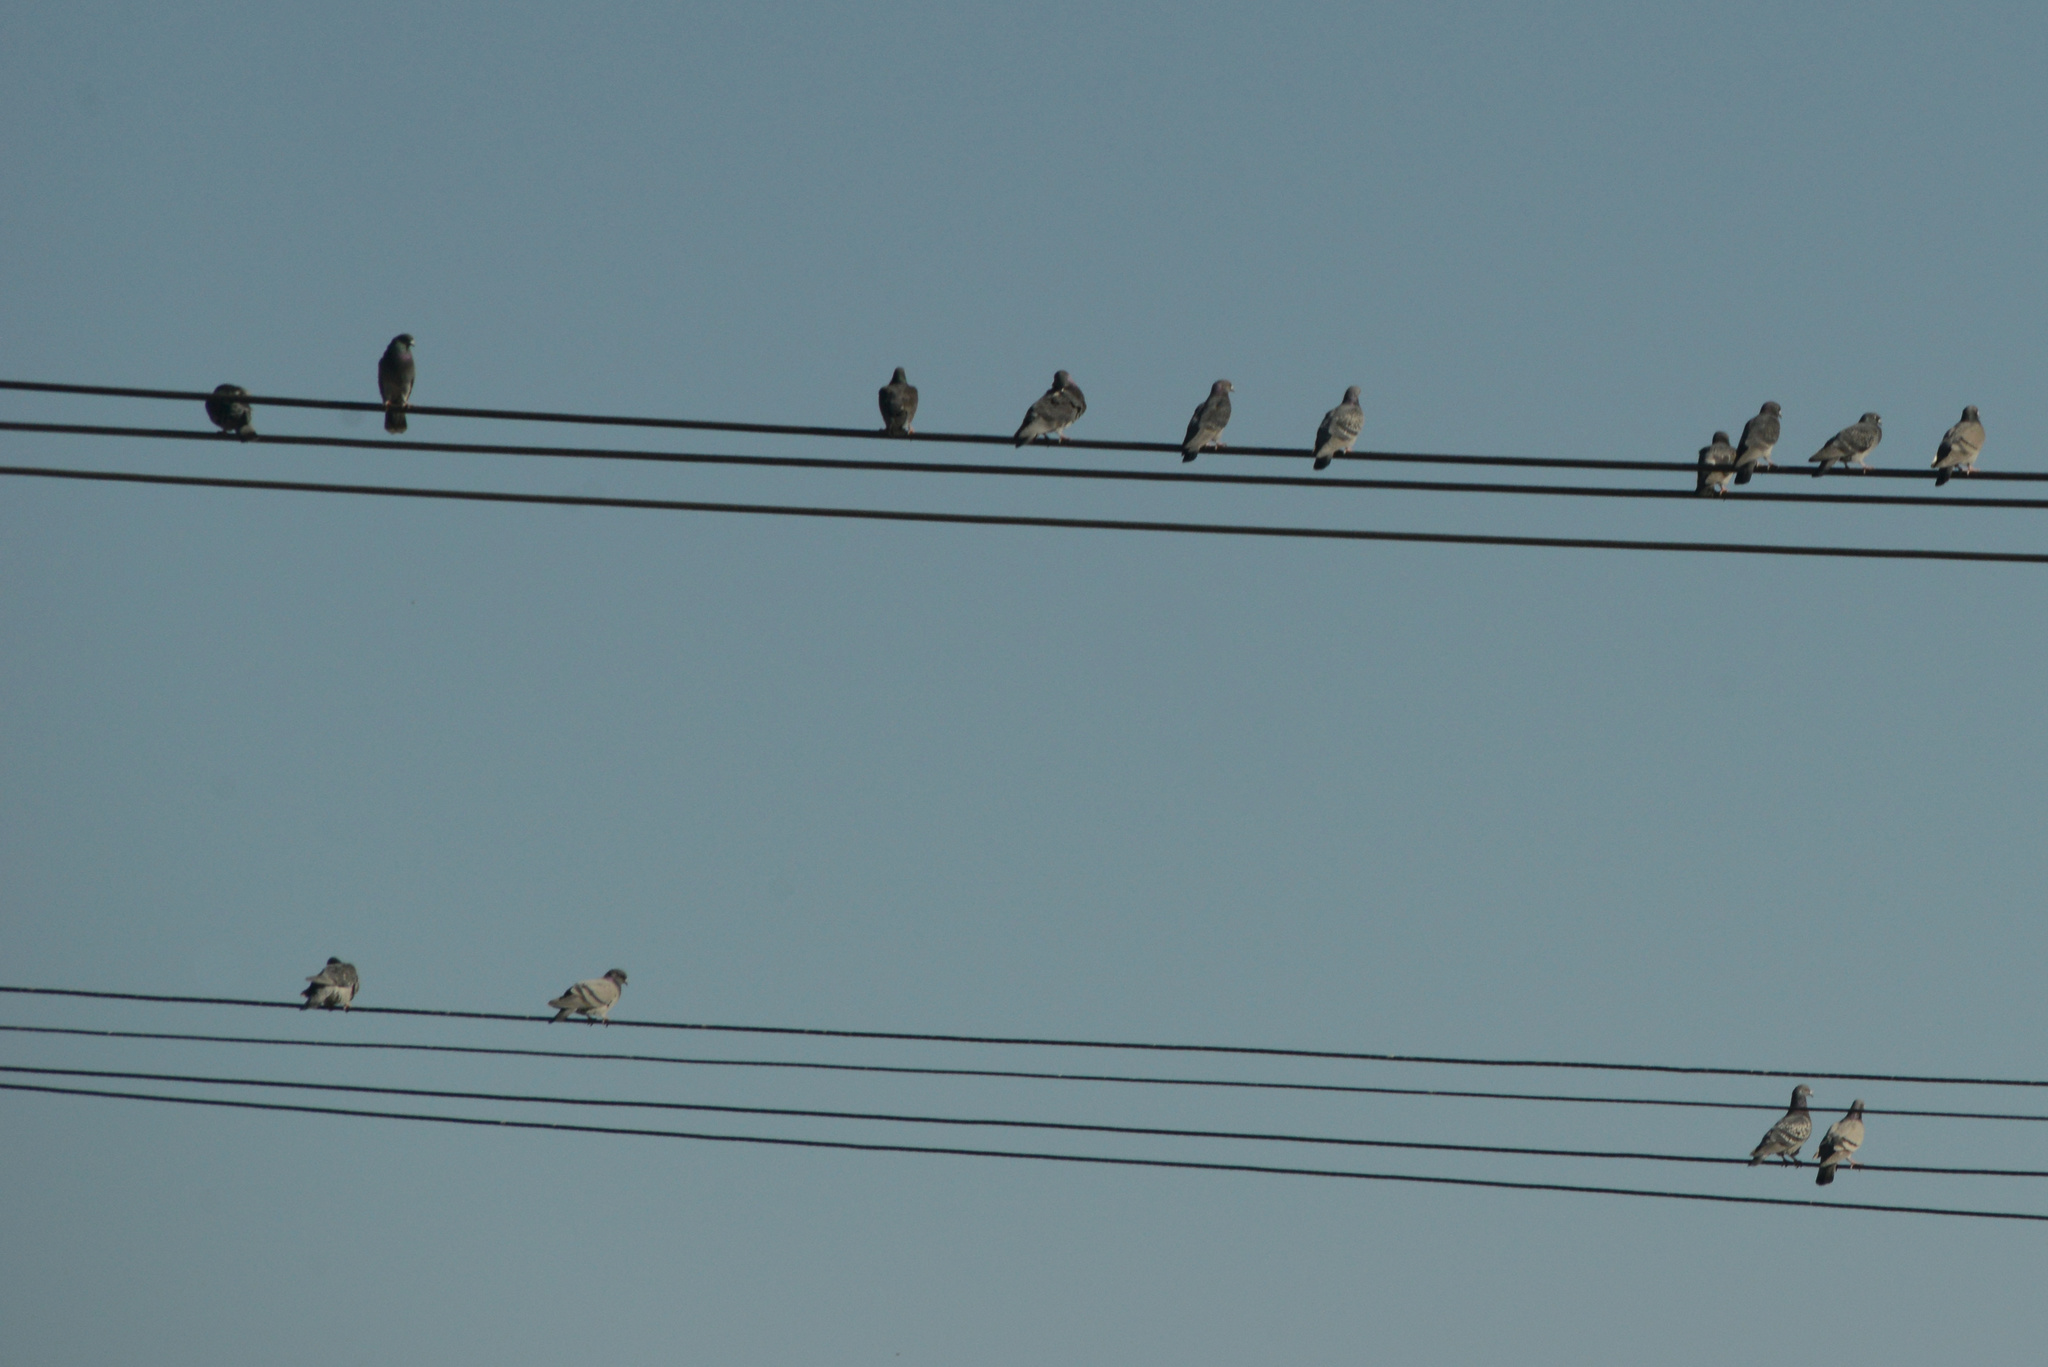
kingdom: Animalia
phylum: Chordata
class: Aves
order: Columbiformes
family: Columbidae
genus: Columba
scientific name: Columba livia
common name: Rock pigeon
